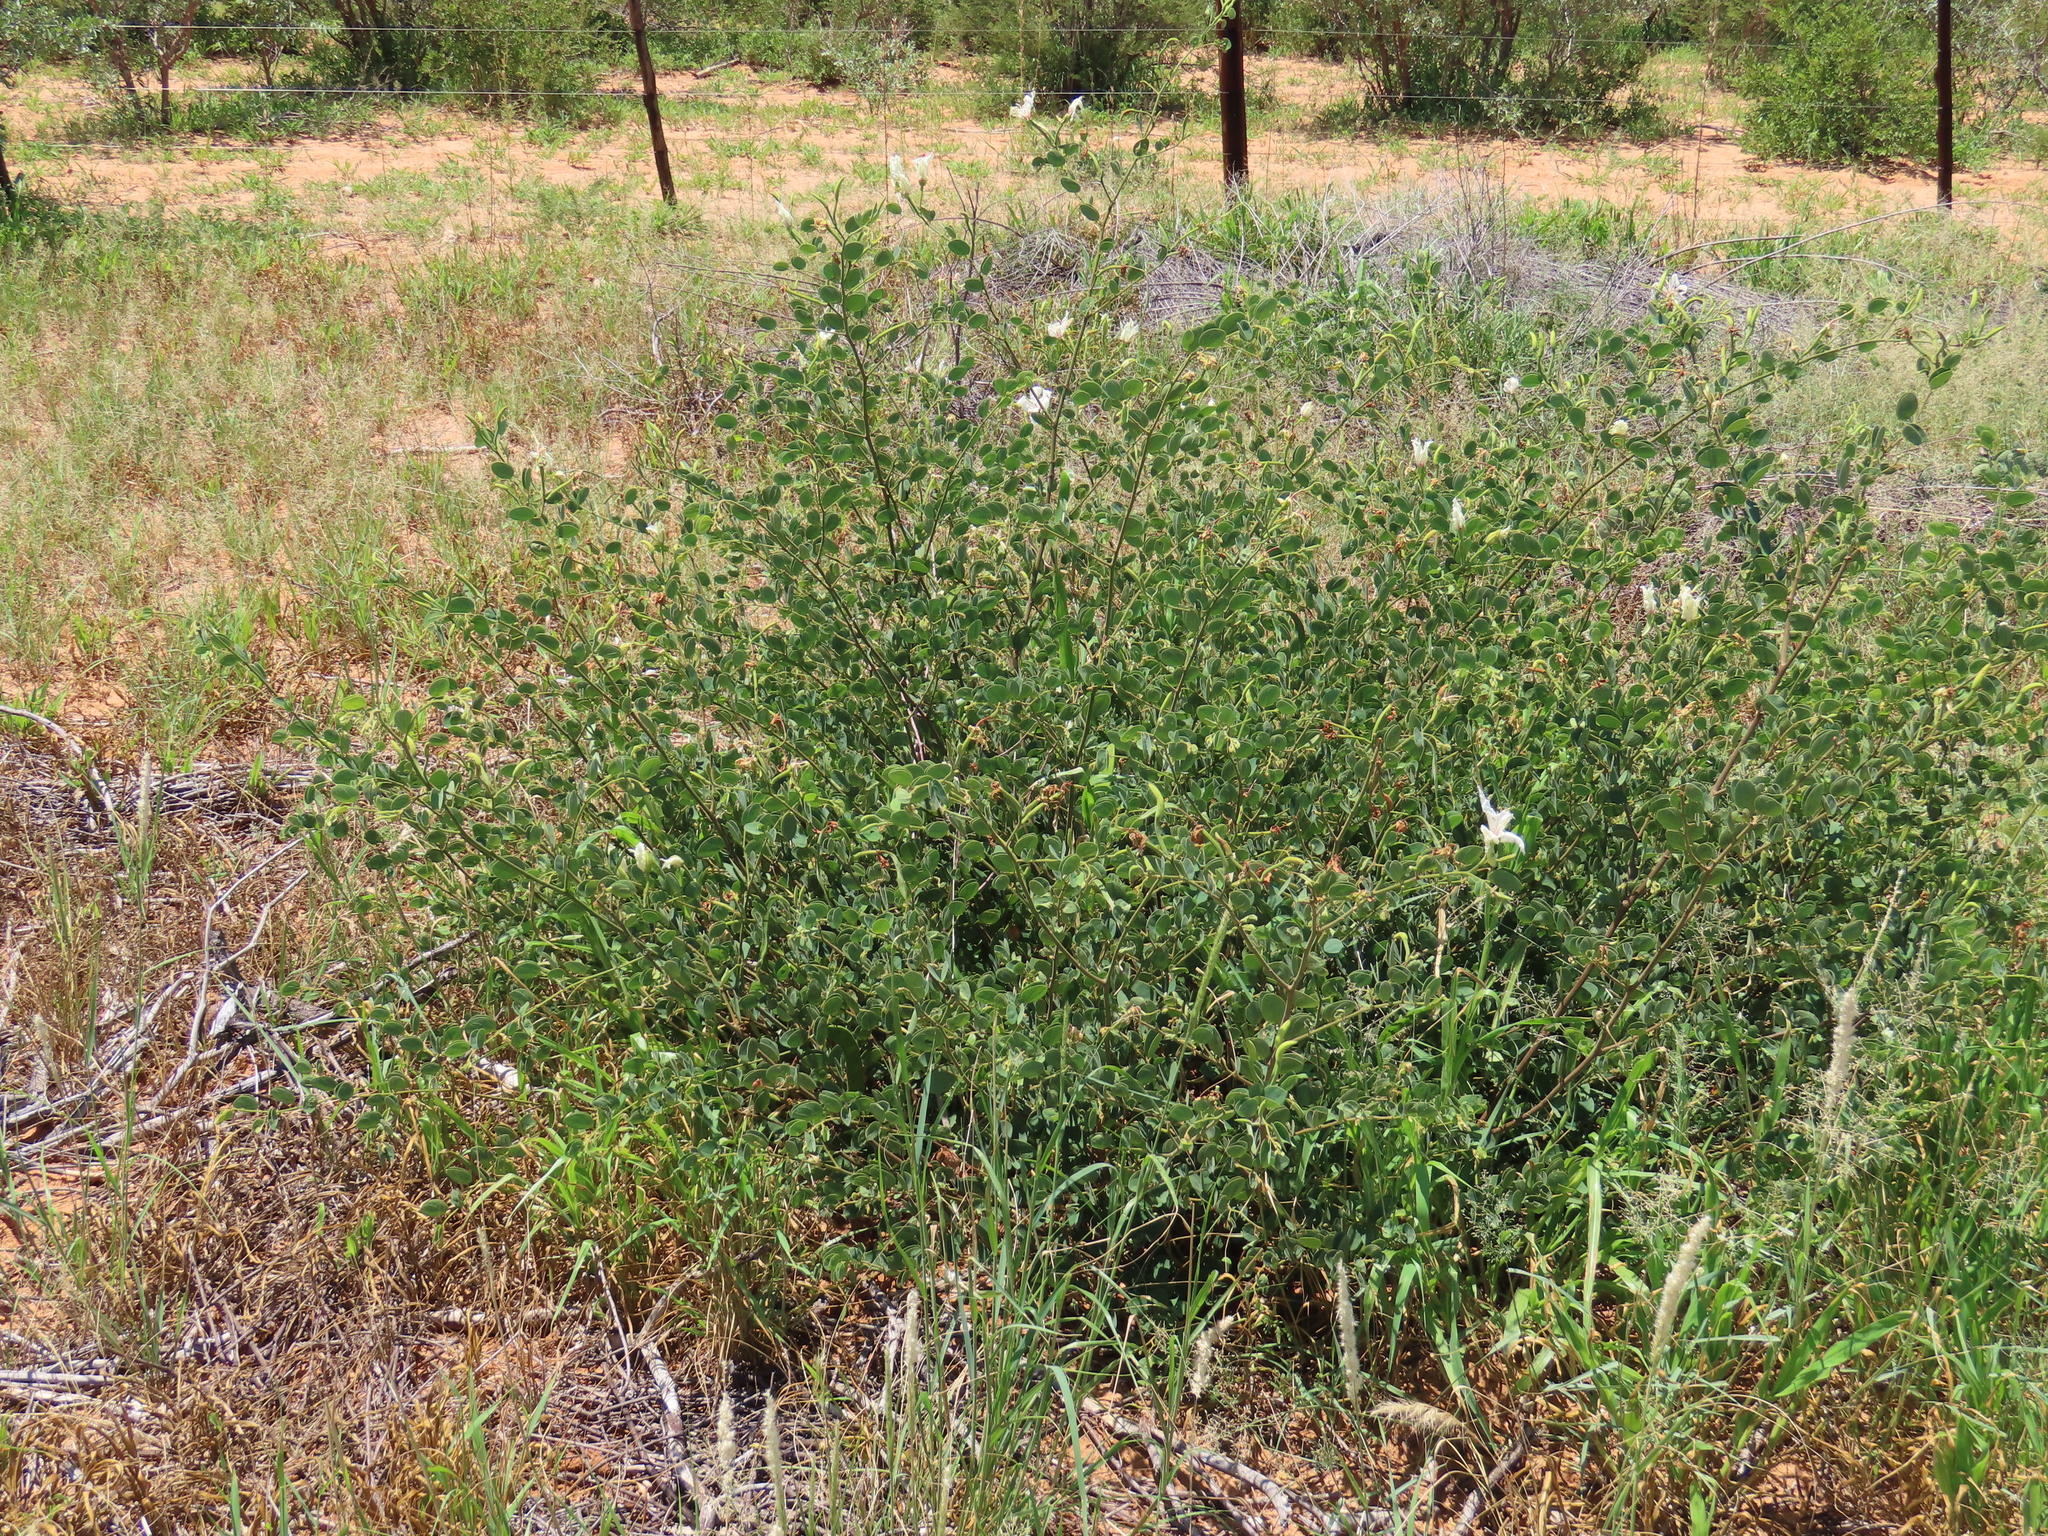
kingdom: Plantae
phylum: Tracheophyta
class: Magnoliopsida
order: Fabales
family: Fabaceae
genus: Bauhinia
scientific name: Bauhinia petersiana
